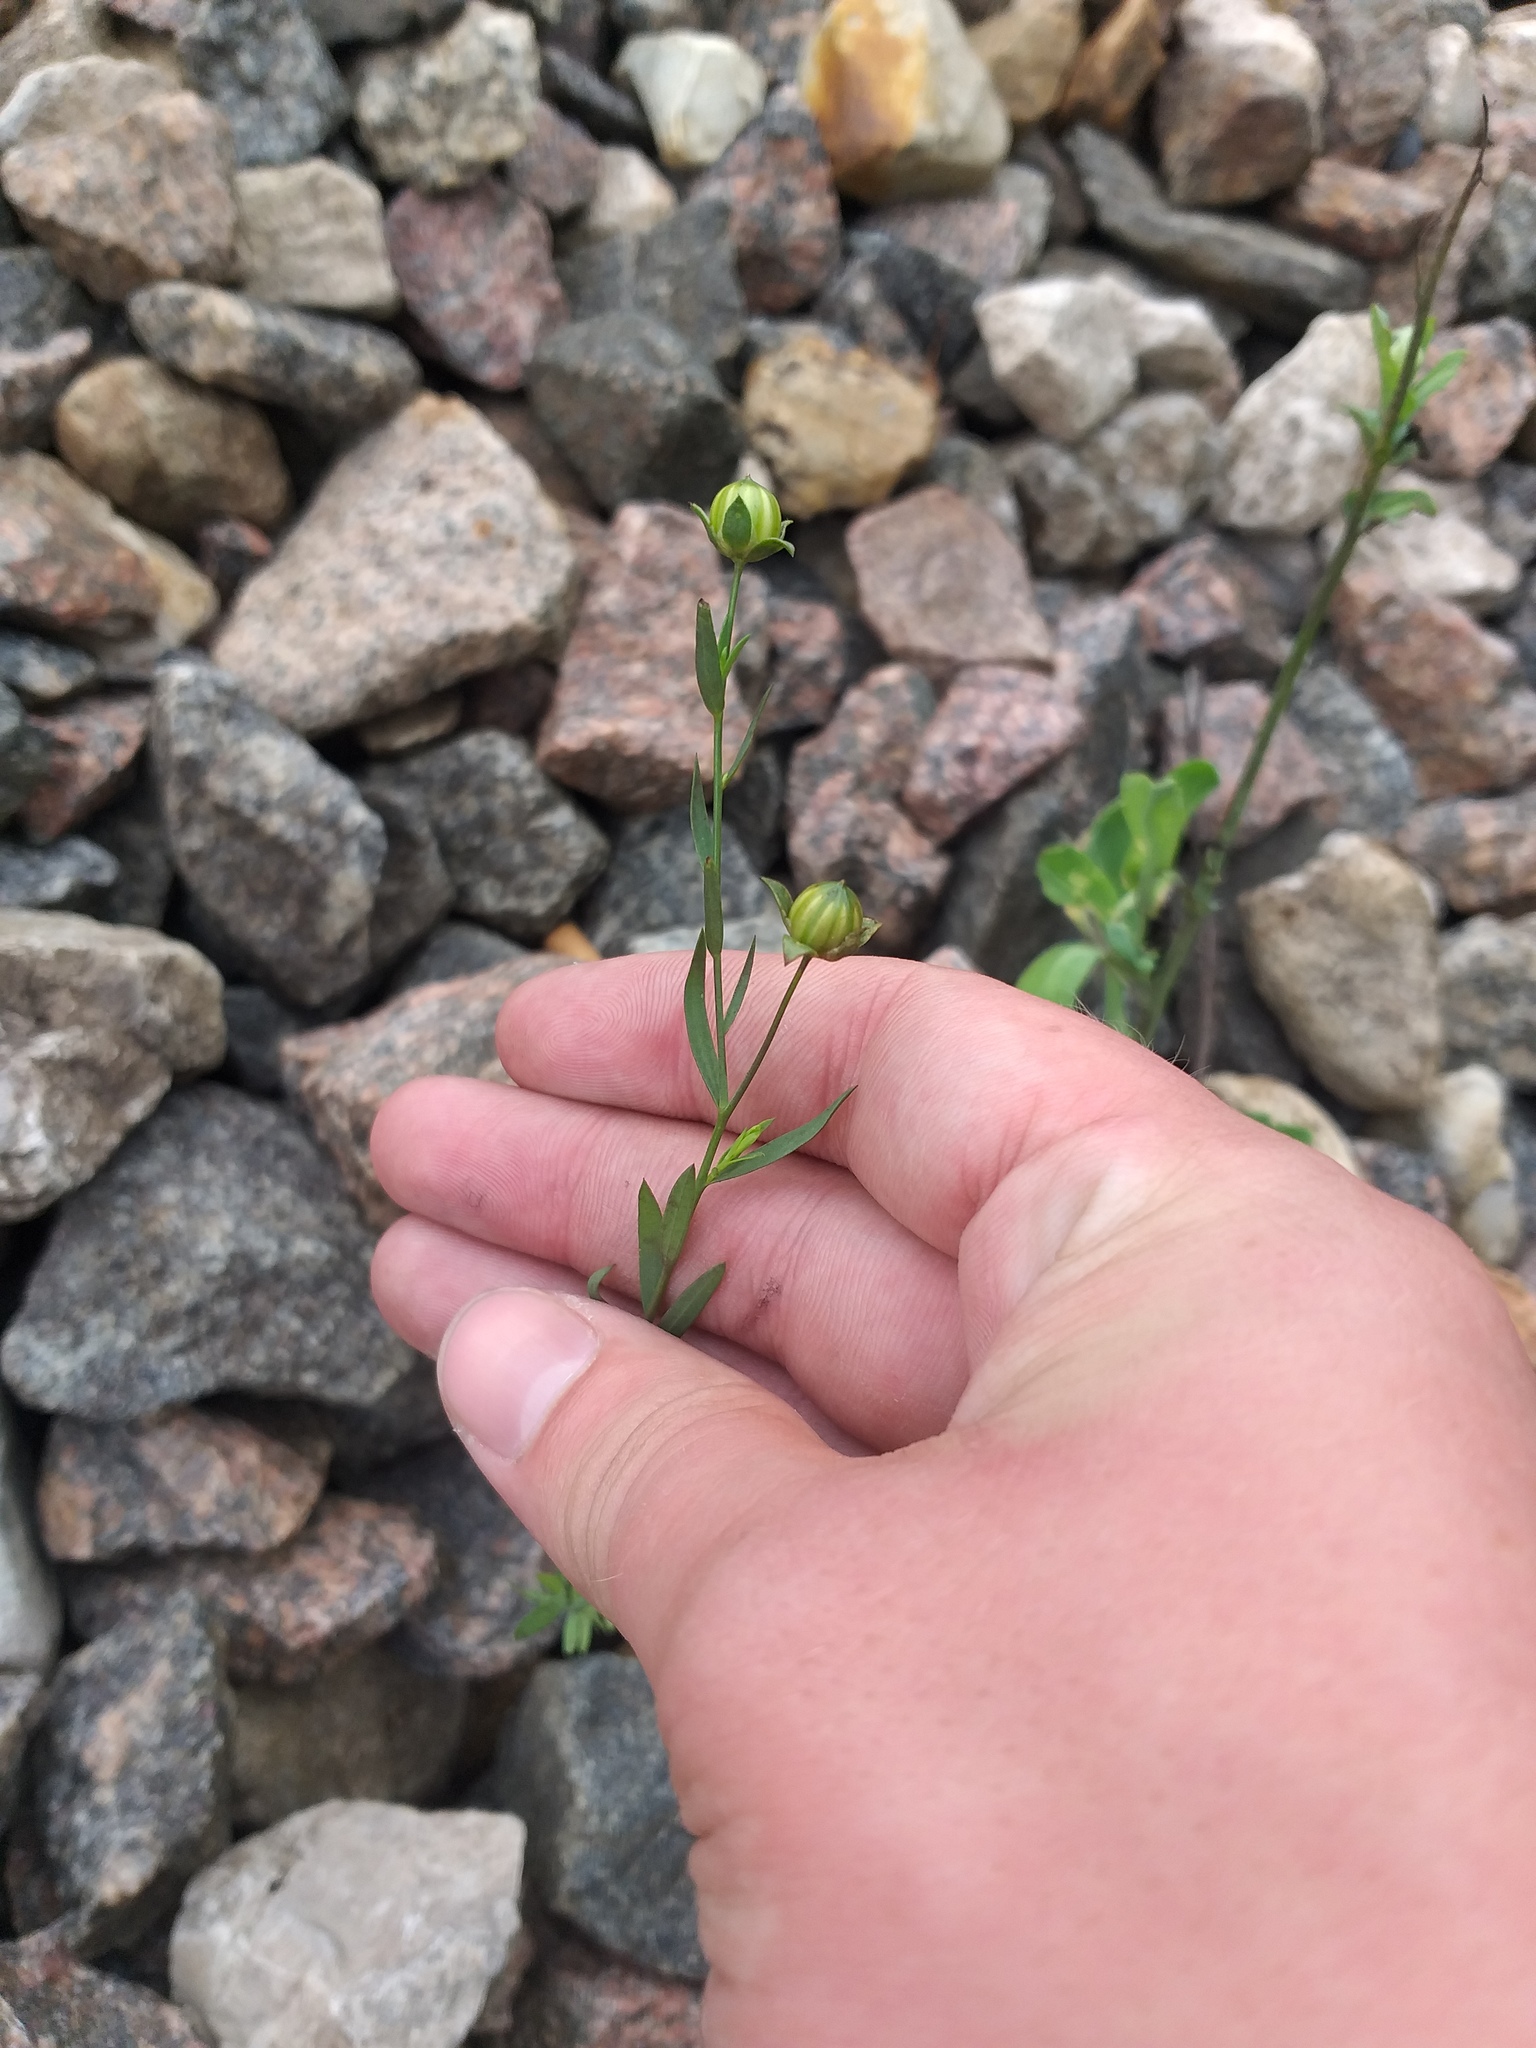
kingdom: Plantae
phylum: Tracheophyta
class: Magnoliopsida
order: Malpighiales
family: Linaceae
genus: Linum
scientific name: Linum usitatissimum
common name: Flax
